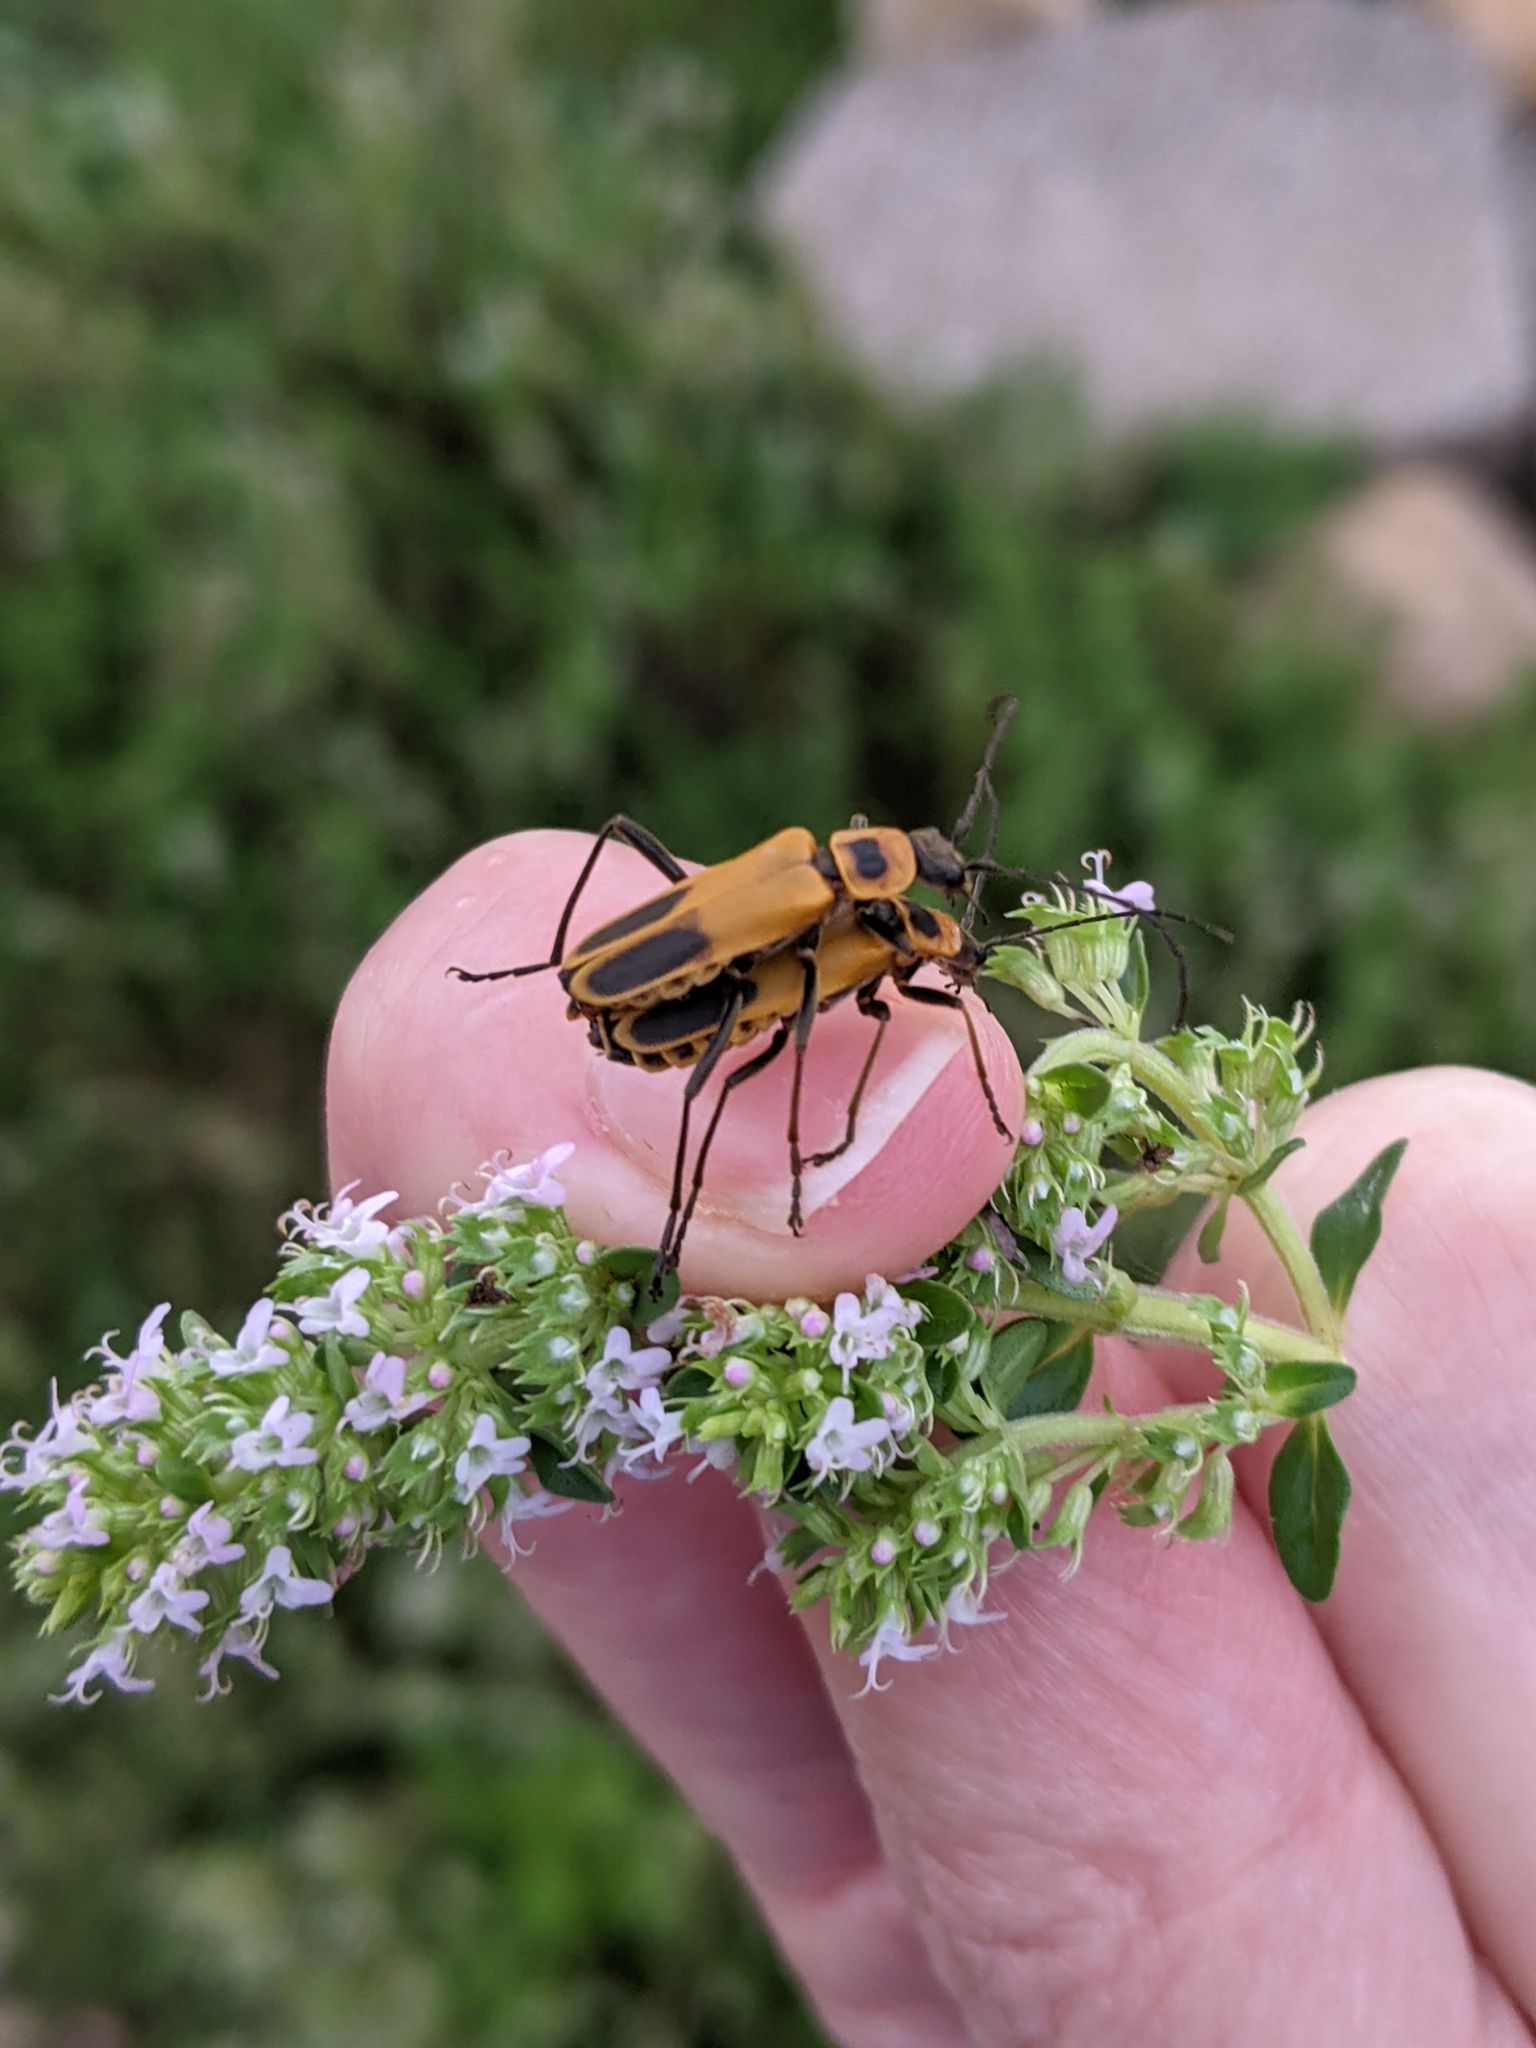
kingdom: Animalia
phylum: Arthropoda
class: Insecta
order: Coleoptera
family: Cantharidae
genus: Chauliognathus
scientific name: Chauliognathus pensylvanicus
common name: Goldenrod soldier beetle
